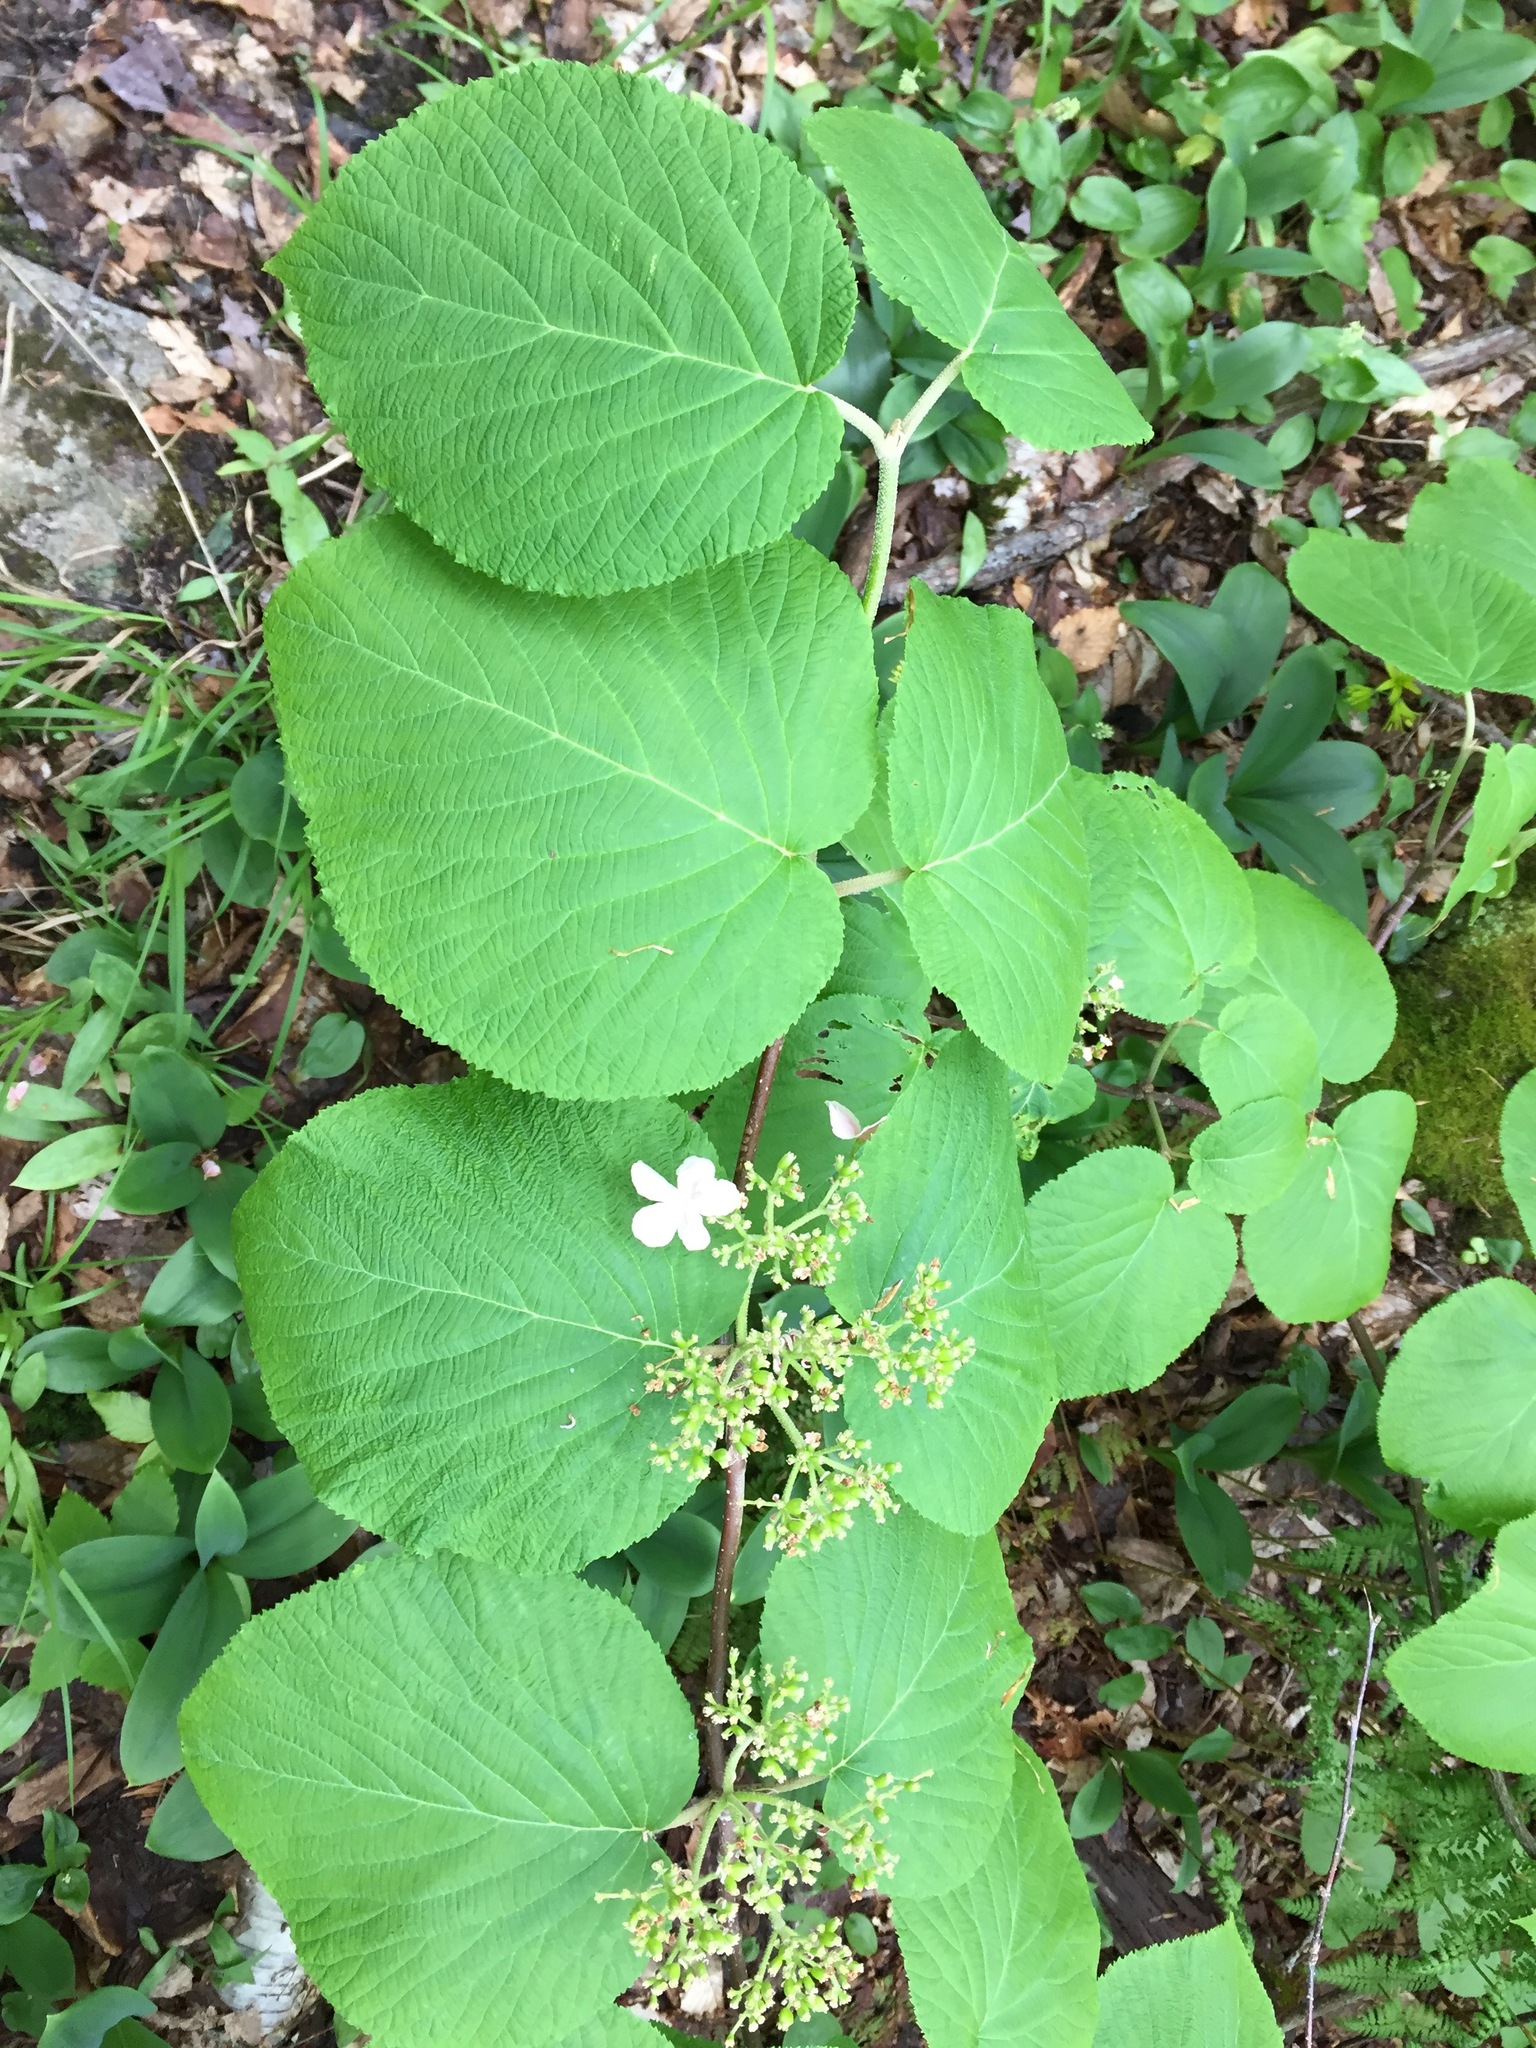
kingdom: Plantae
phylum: Tracheophyta
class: Magnoliopsida
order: Dipsacales
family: Viburnaceae
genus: Viburnum
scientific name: Viburnum lantanoides
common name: Hobblebush
